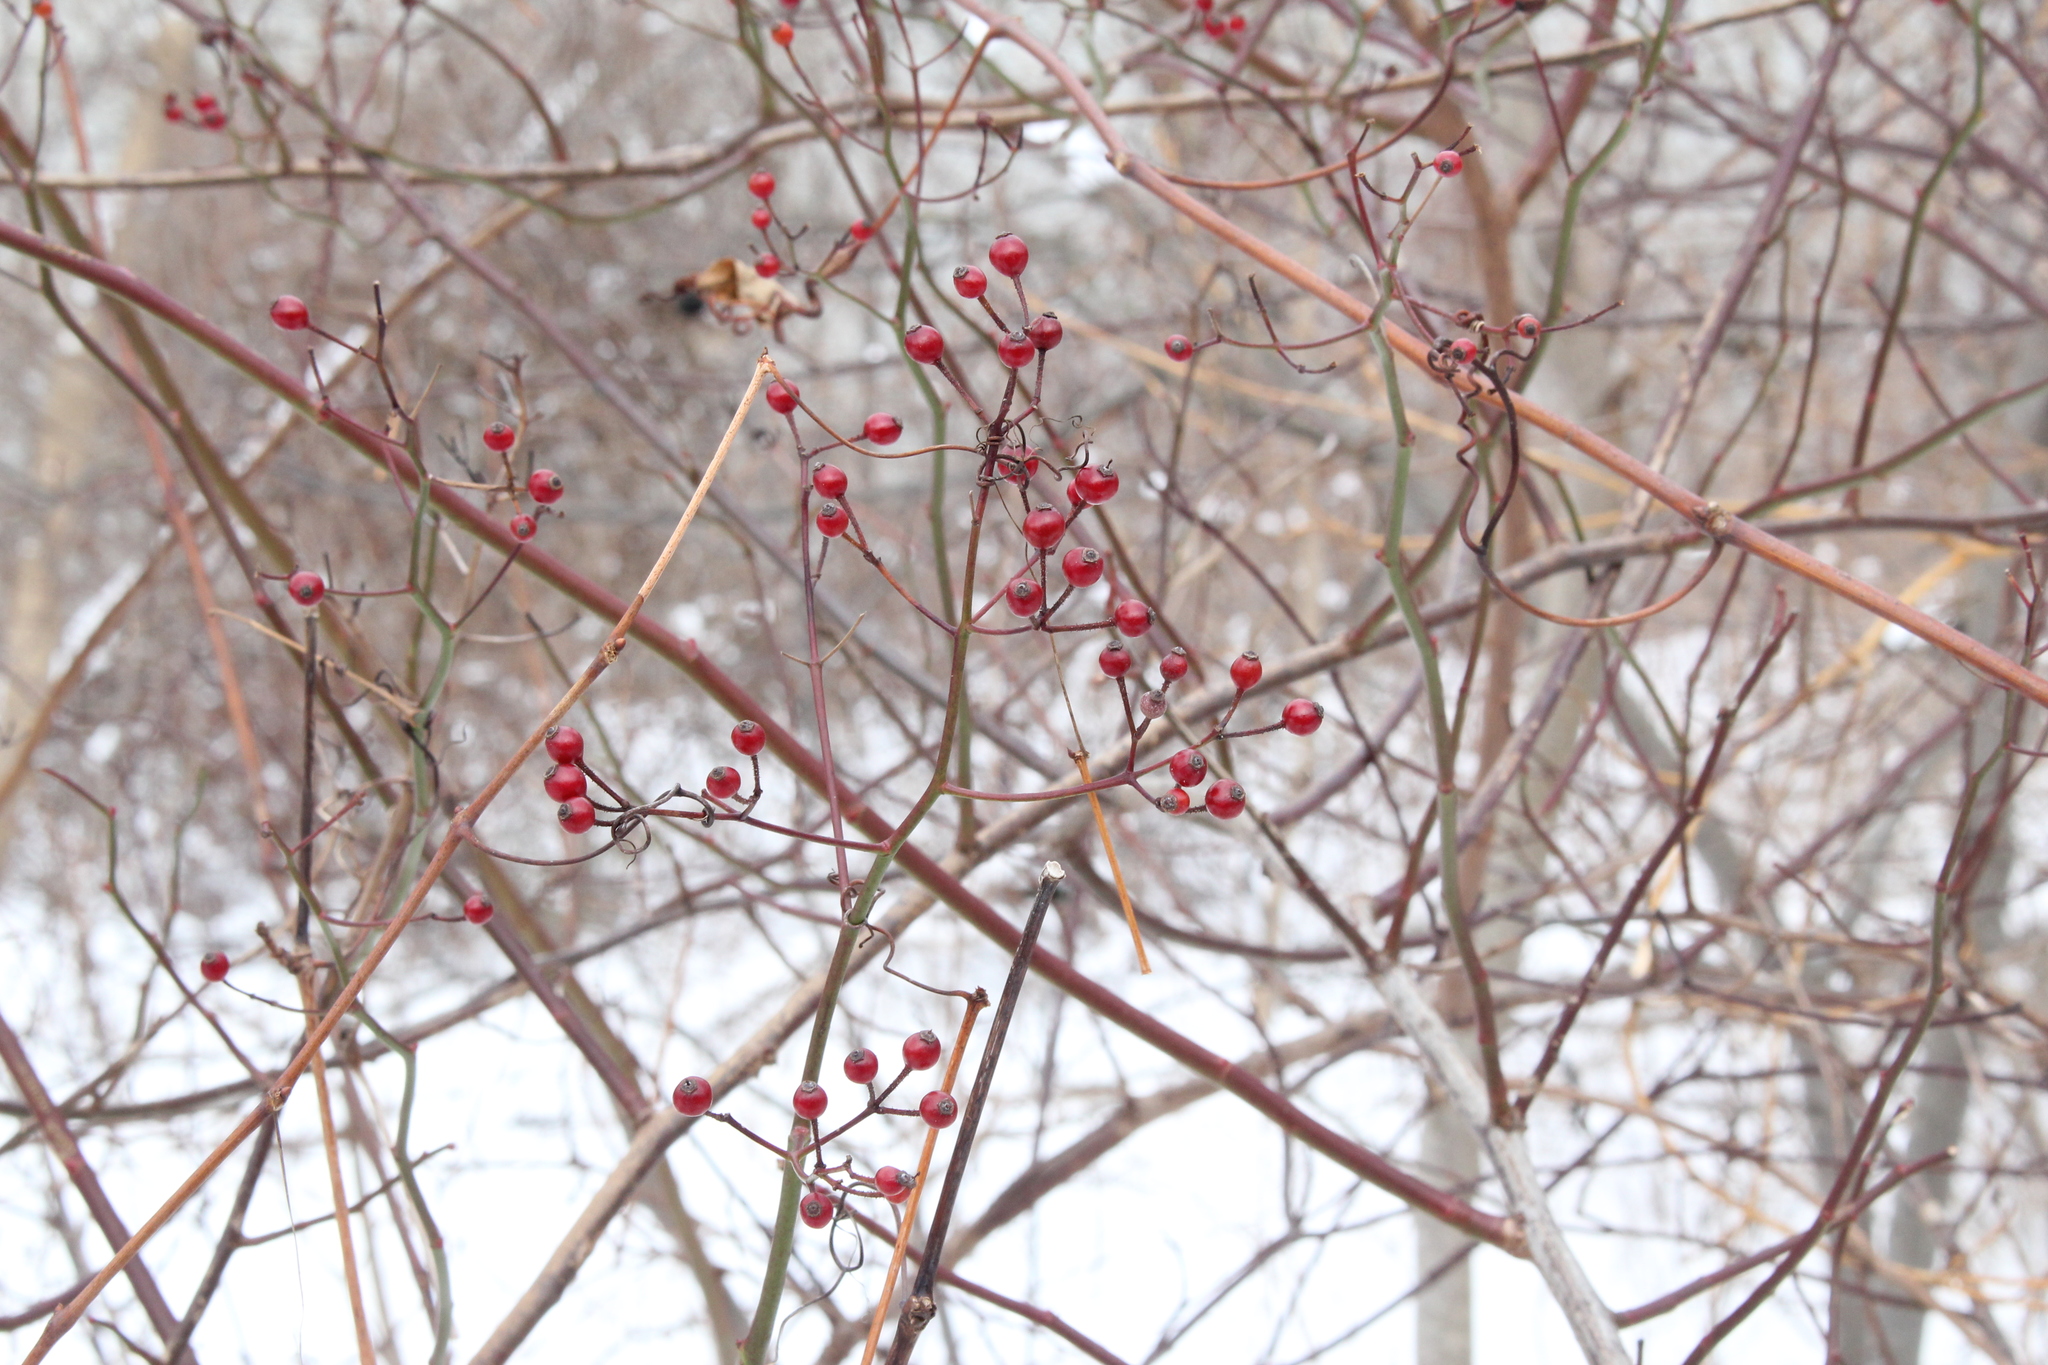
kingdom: Plantae
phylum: Tracheophyta
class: Magnoliopsida
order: Rosales
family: Rosaceae
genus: Rosa
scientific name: Rosa multiflora
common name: Multiflora rose
